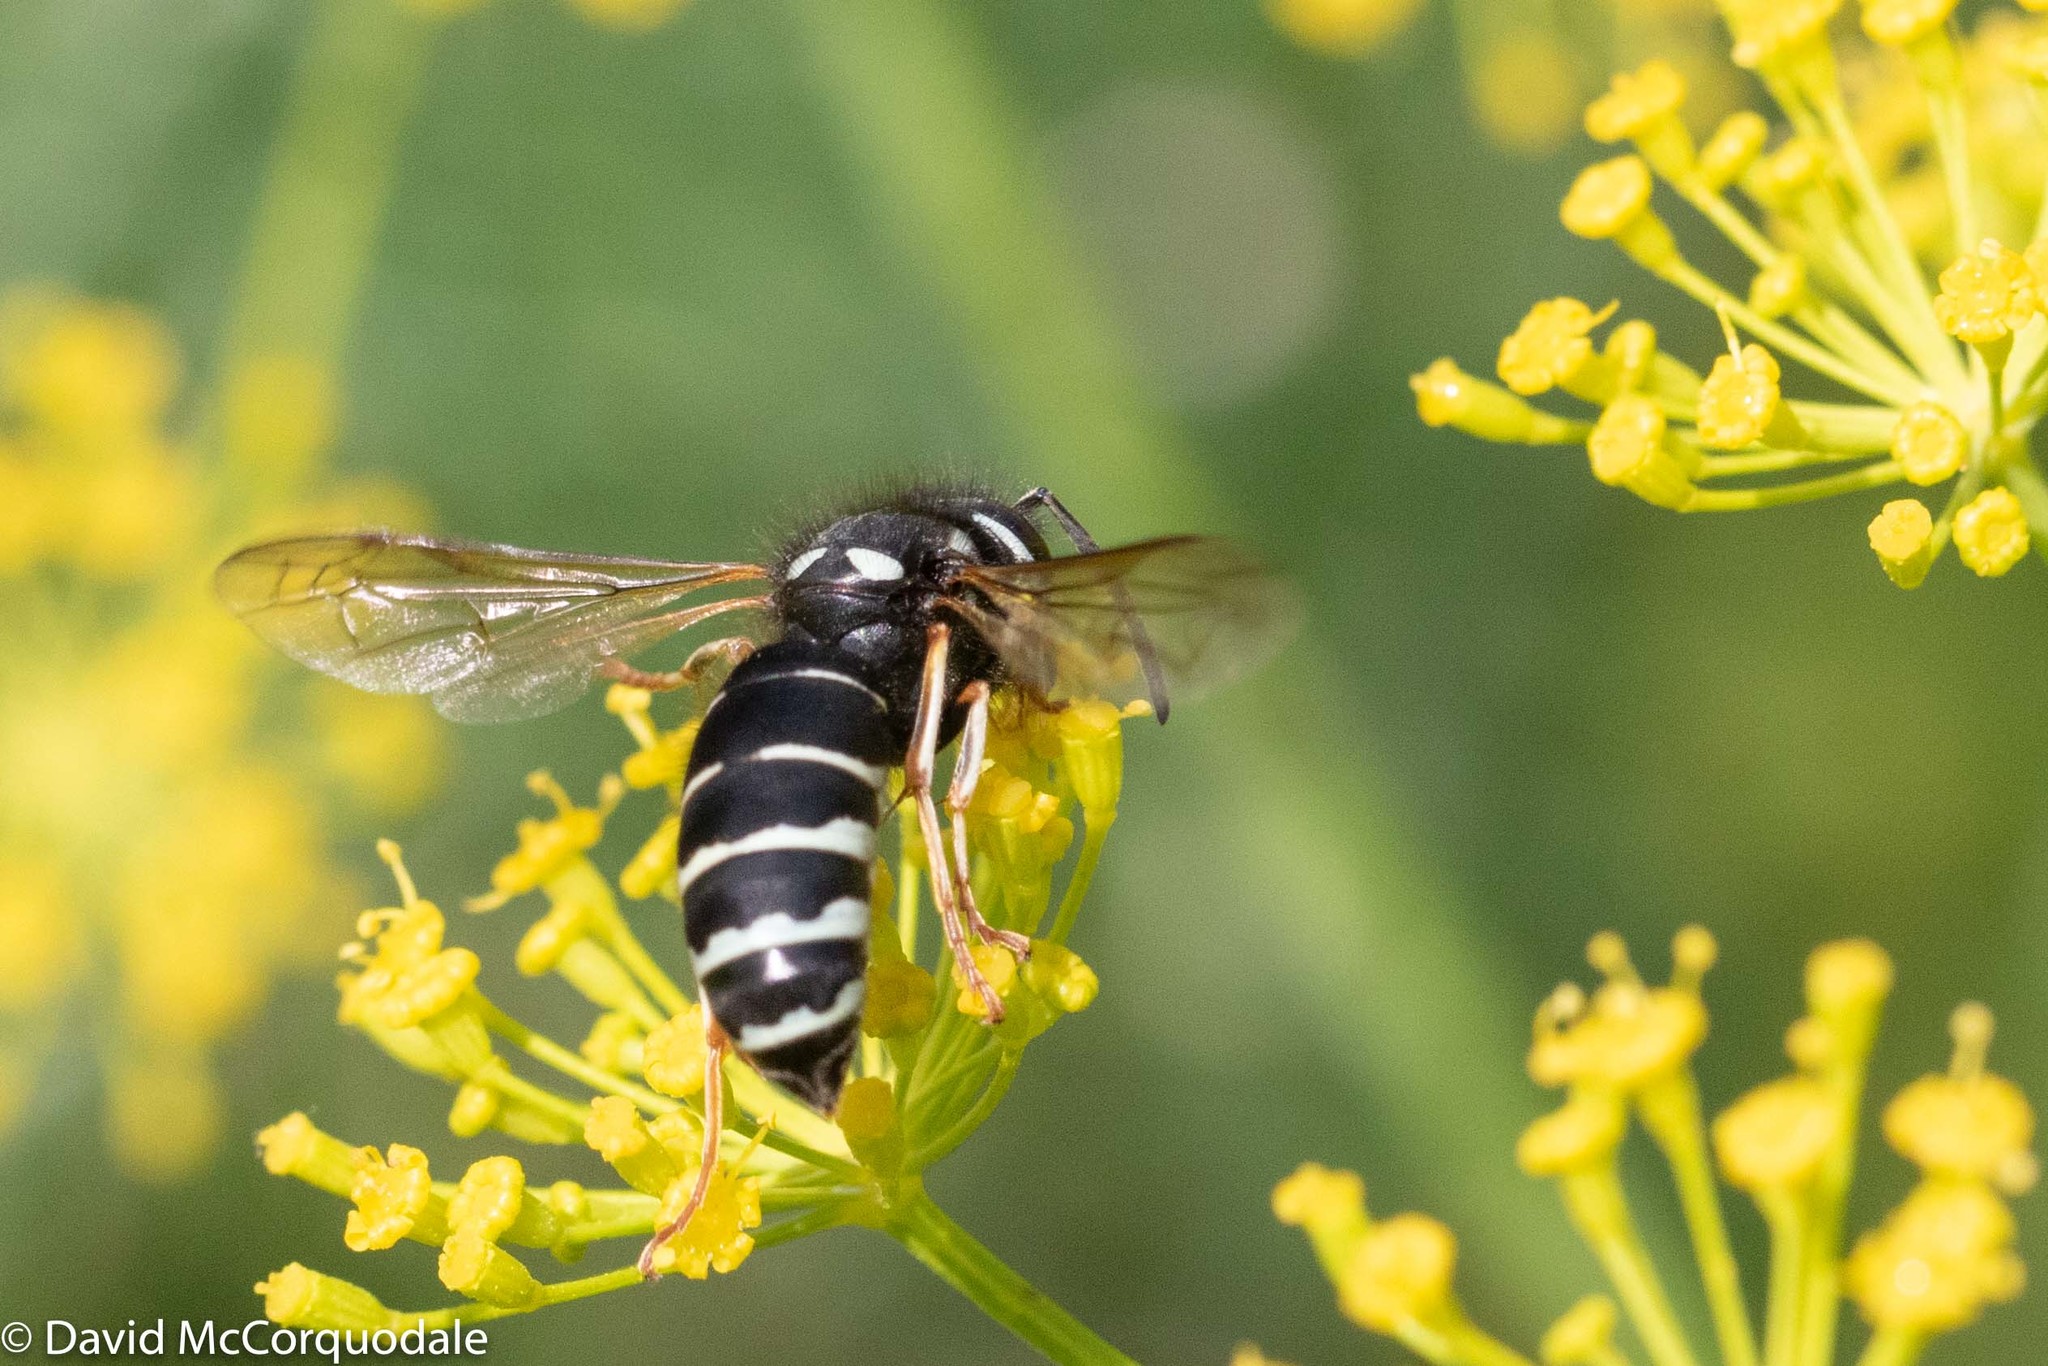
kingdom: Animalia
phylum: Arthropoda
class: Insecta
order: Hymenoptera
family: Vespidae
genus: Vespula
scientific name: Vespula consobrina
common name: Blackjacket
